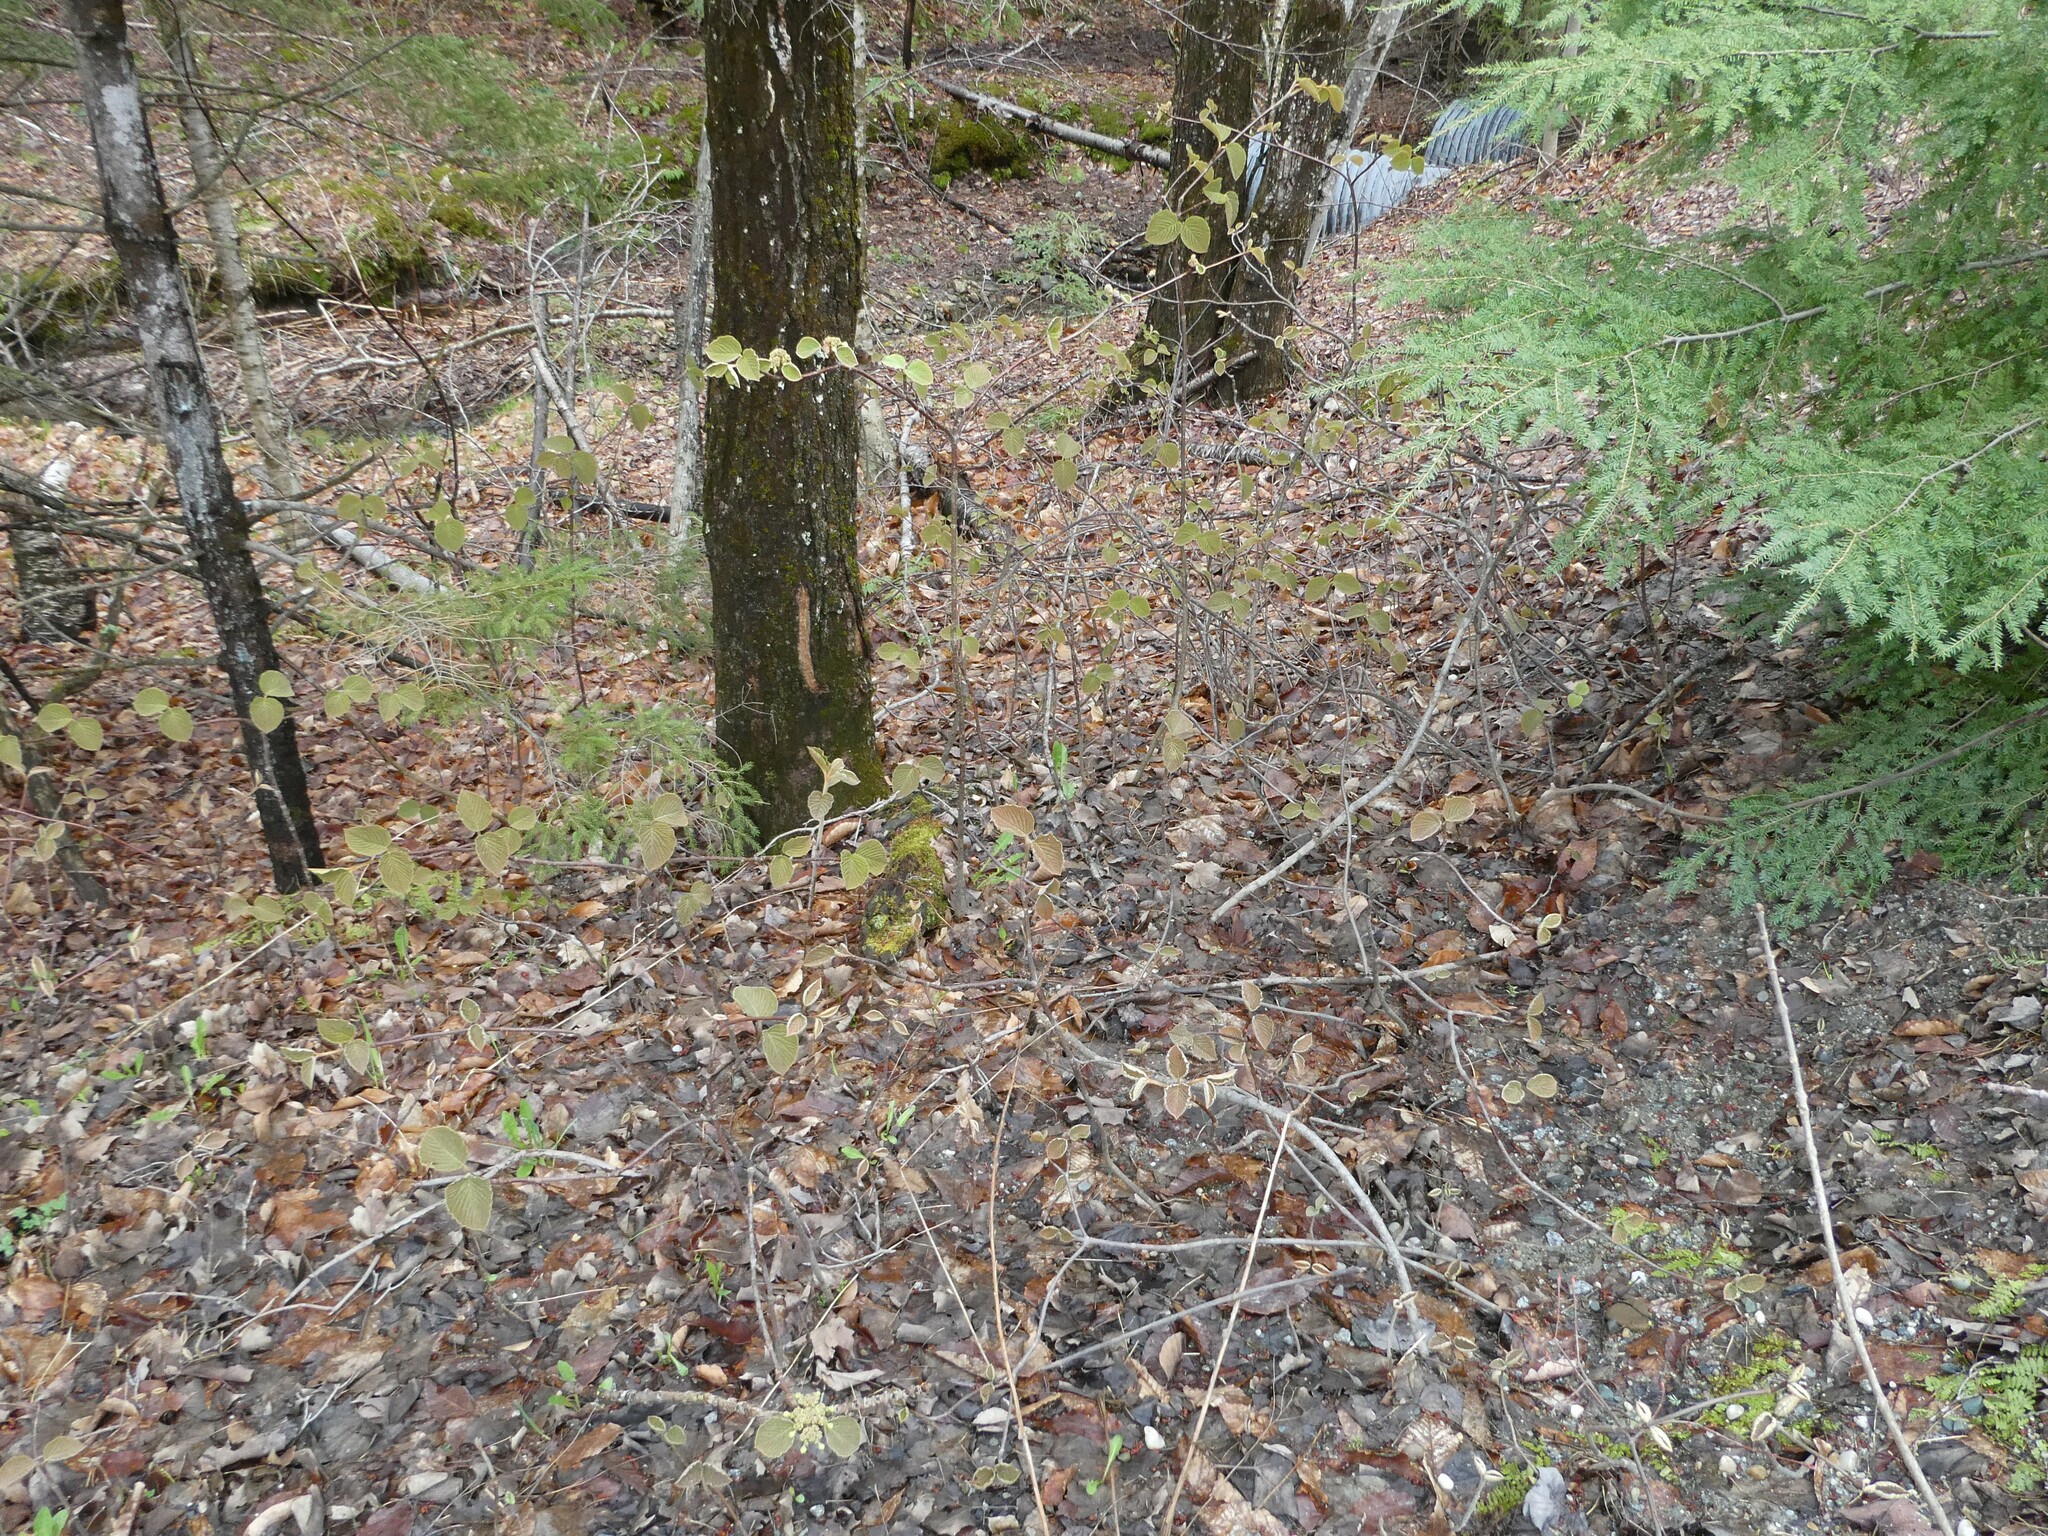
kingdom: Plantae
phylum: Tracheophyta
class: Magnoliopsida
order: Dipsacales
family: Viburnaceae
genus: Viburnum
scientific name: Viburnum lantanoides
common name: Hobblebush
